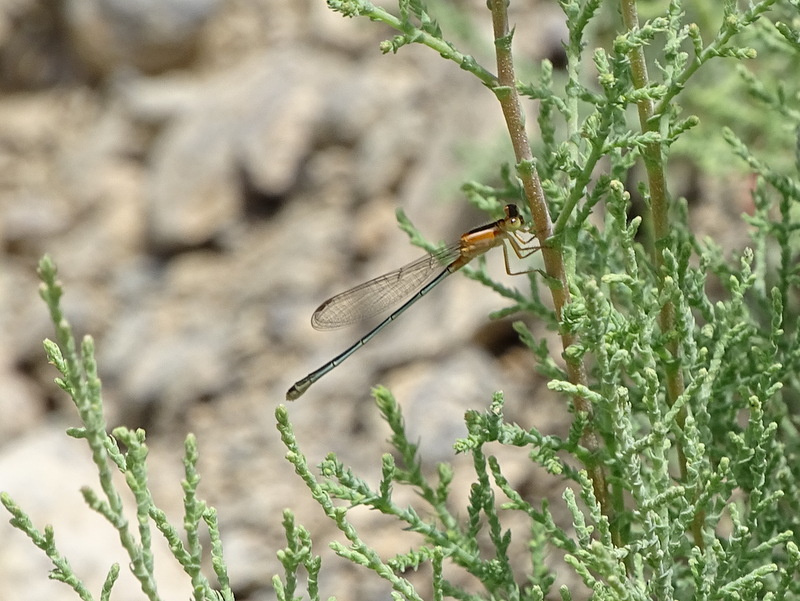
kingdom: Animalia
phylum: Arthropoda
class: Insecta
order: Odonata
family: Coenagrionidae
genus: Ischnura
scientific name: Ischnura senegalensis
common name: Tropical bluetail
